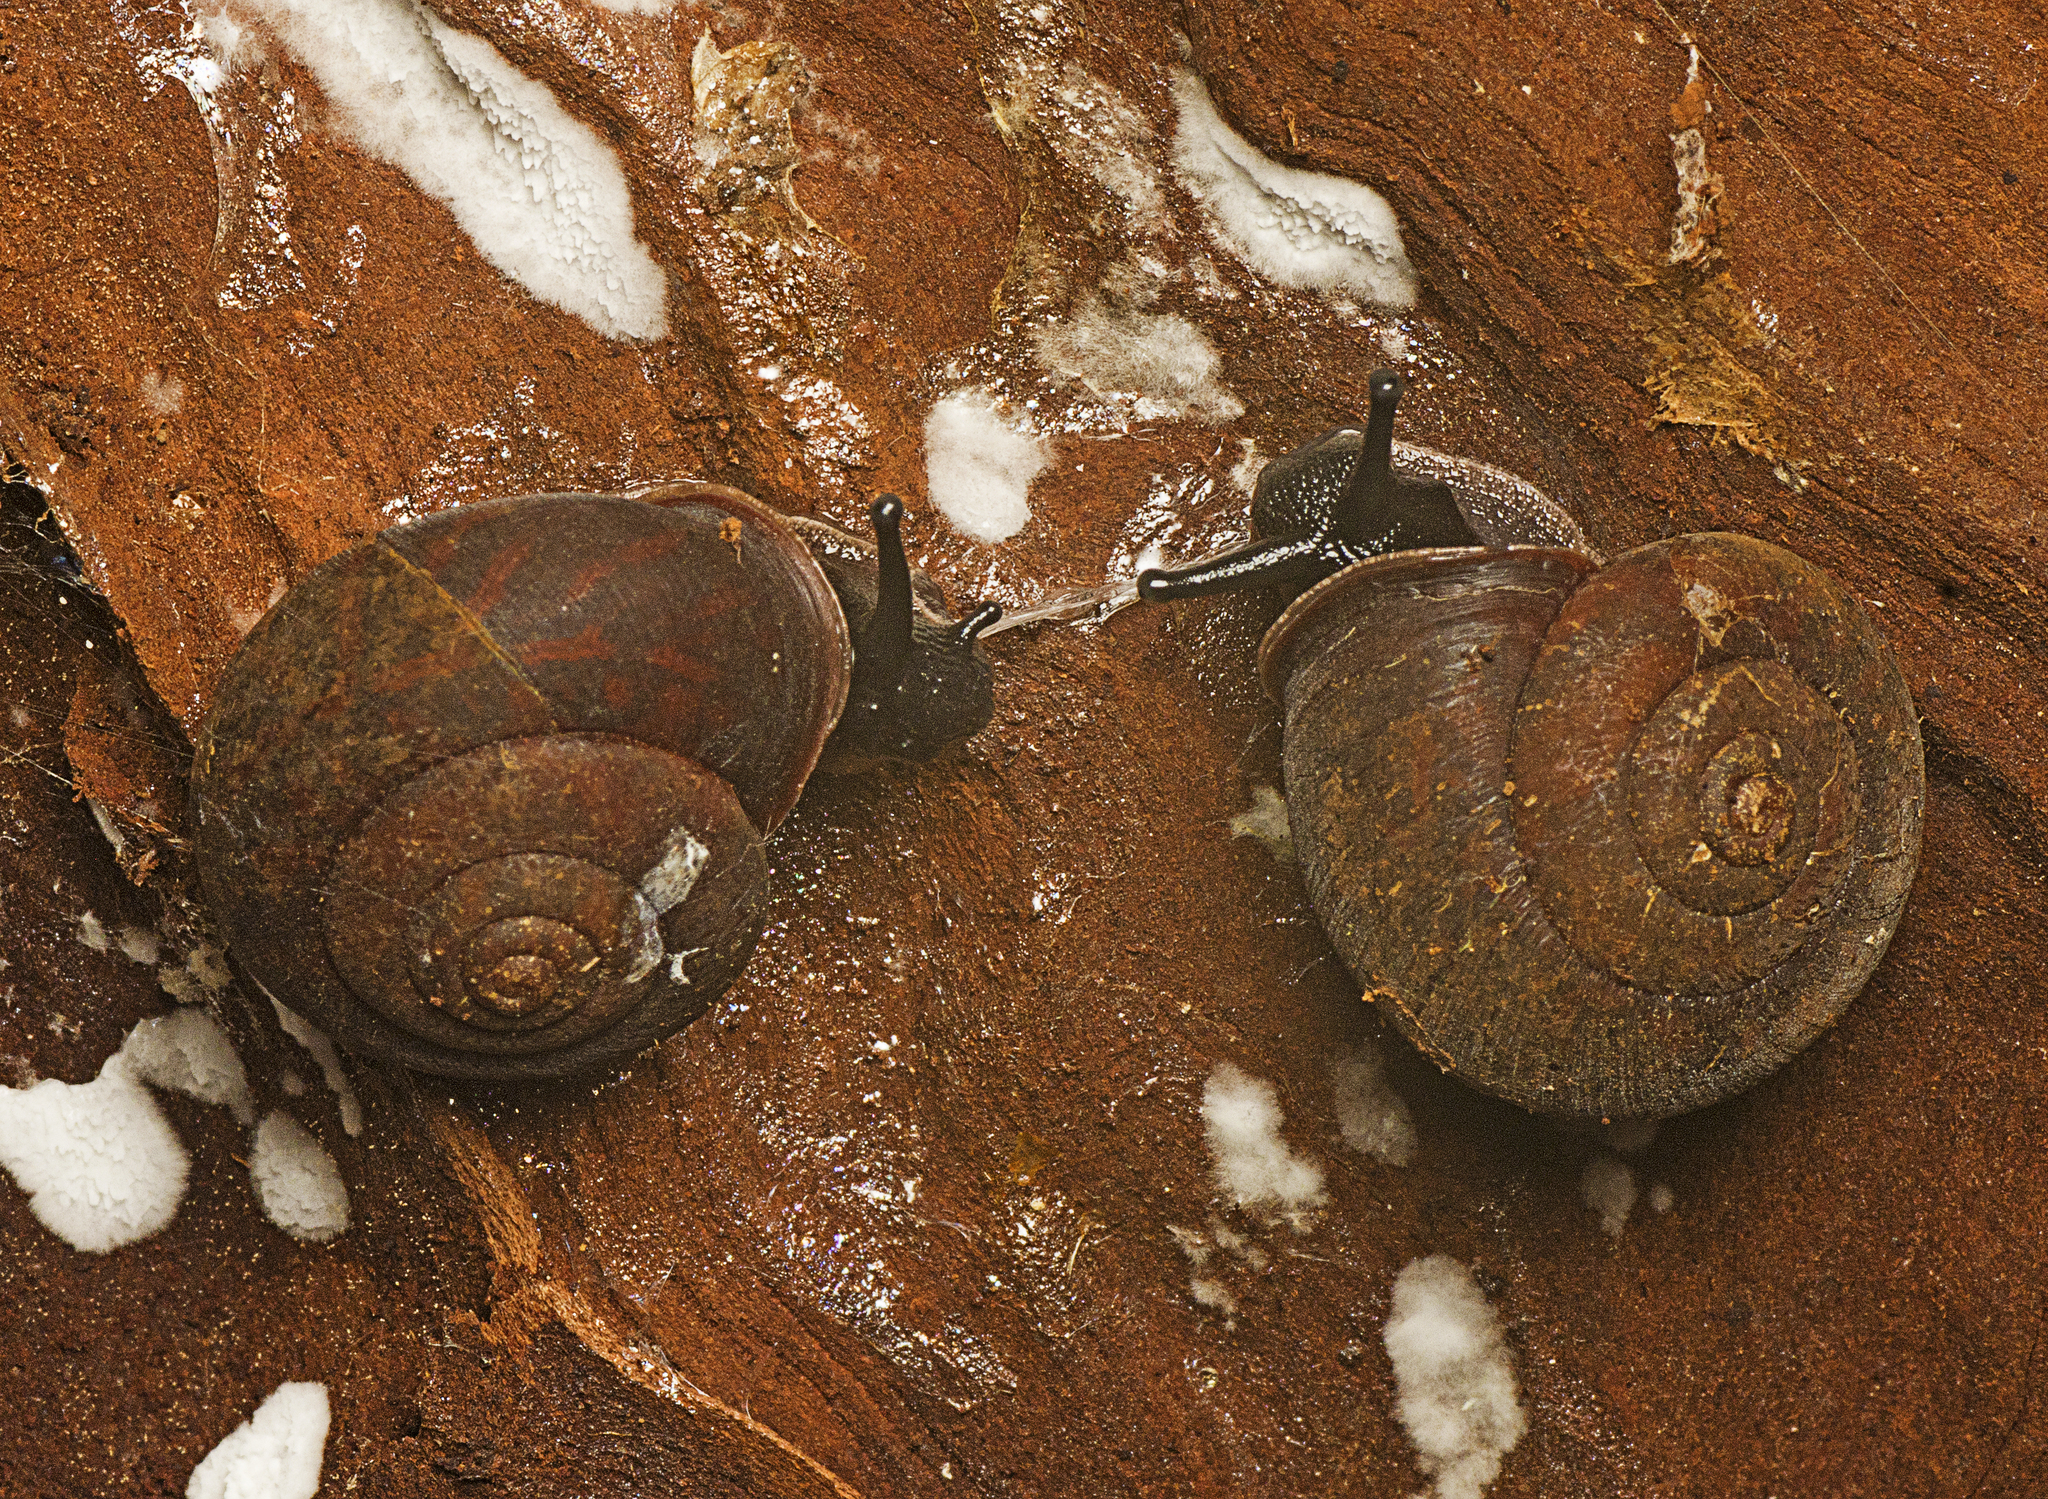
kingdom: Animalia
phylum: Mollusca
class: Gastropoda
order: Stylommatophora
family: Camaenidae
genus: Ramogenia
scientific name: Ramogenia challengeri
